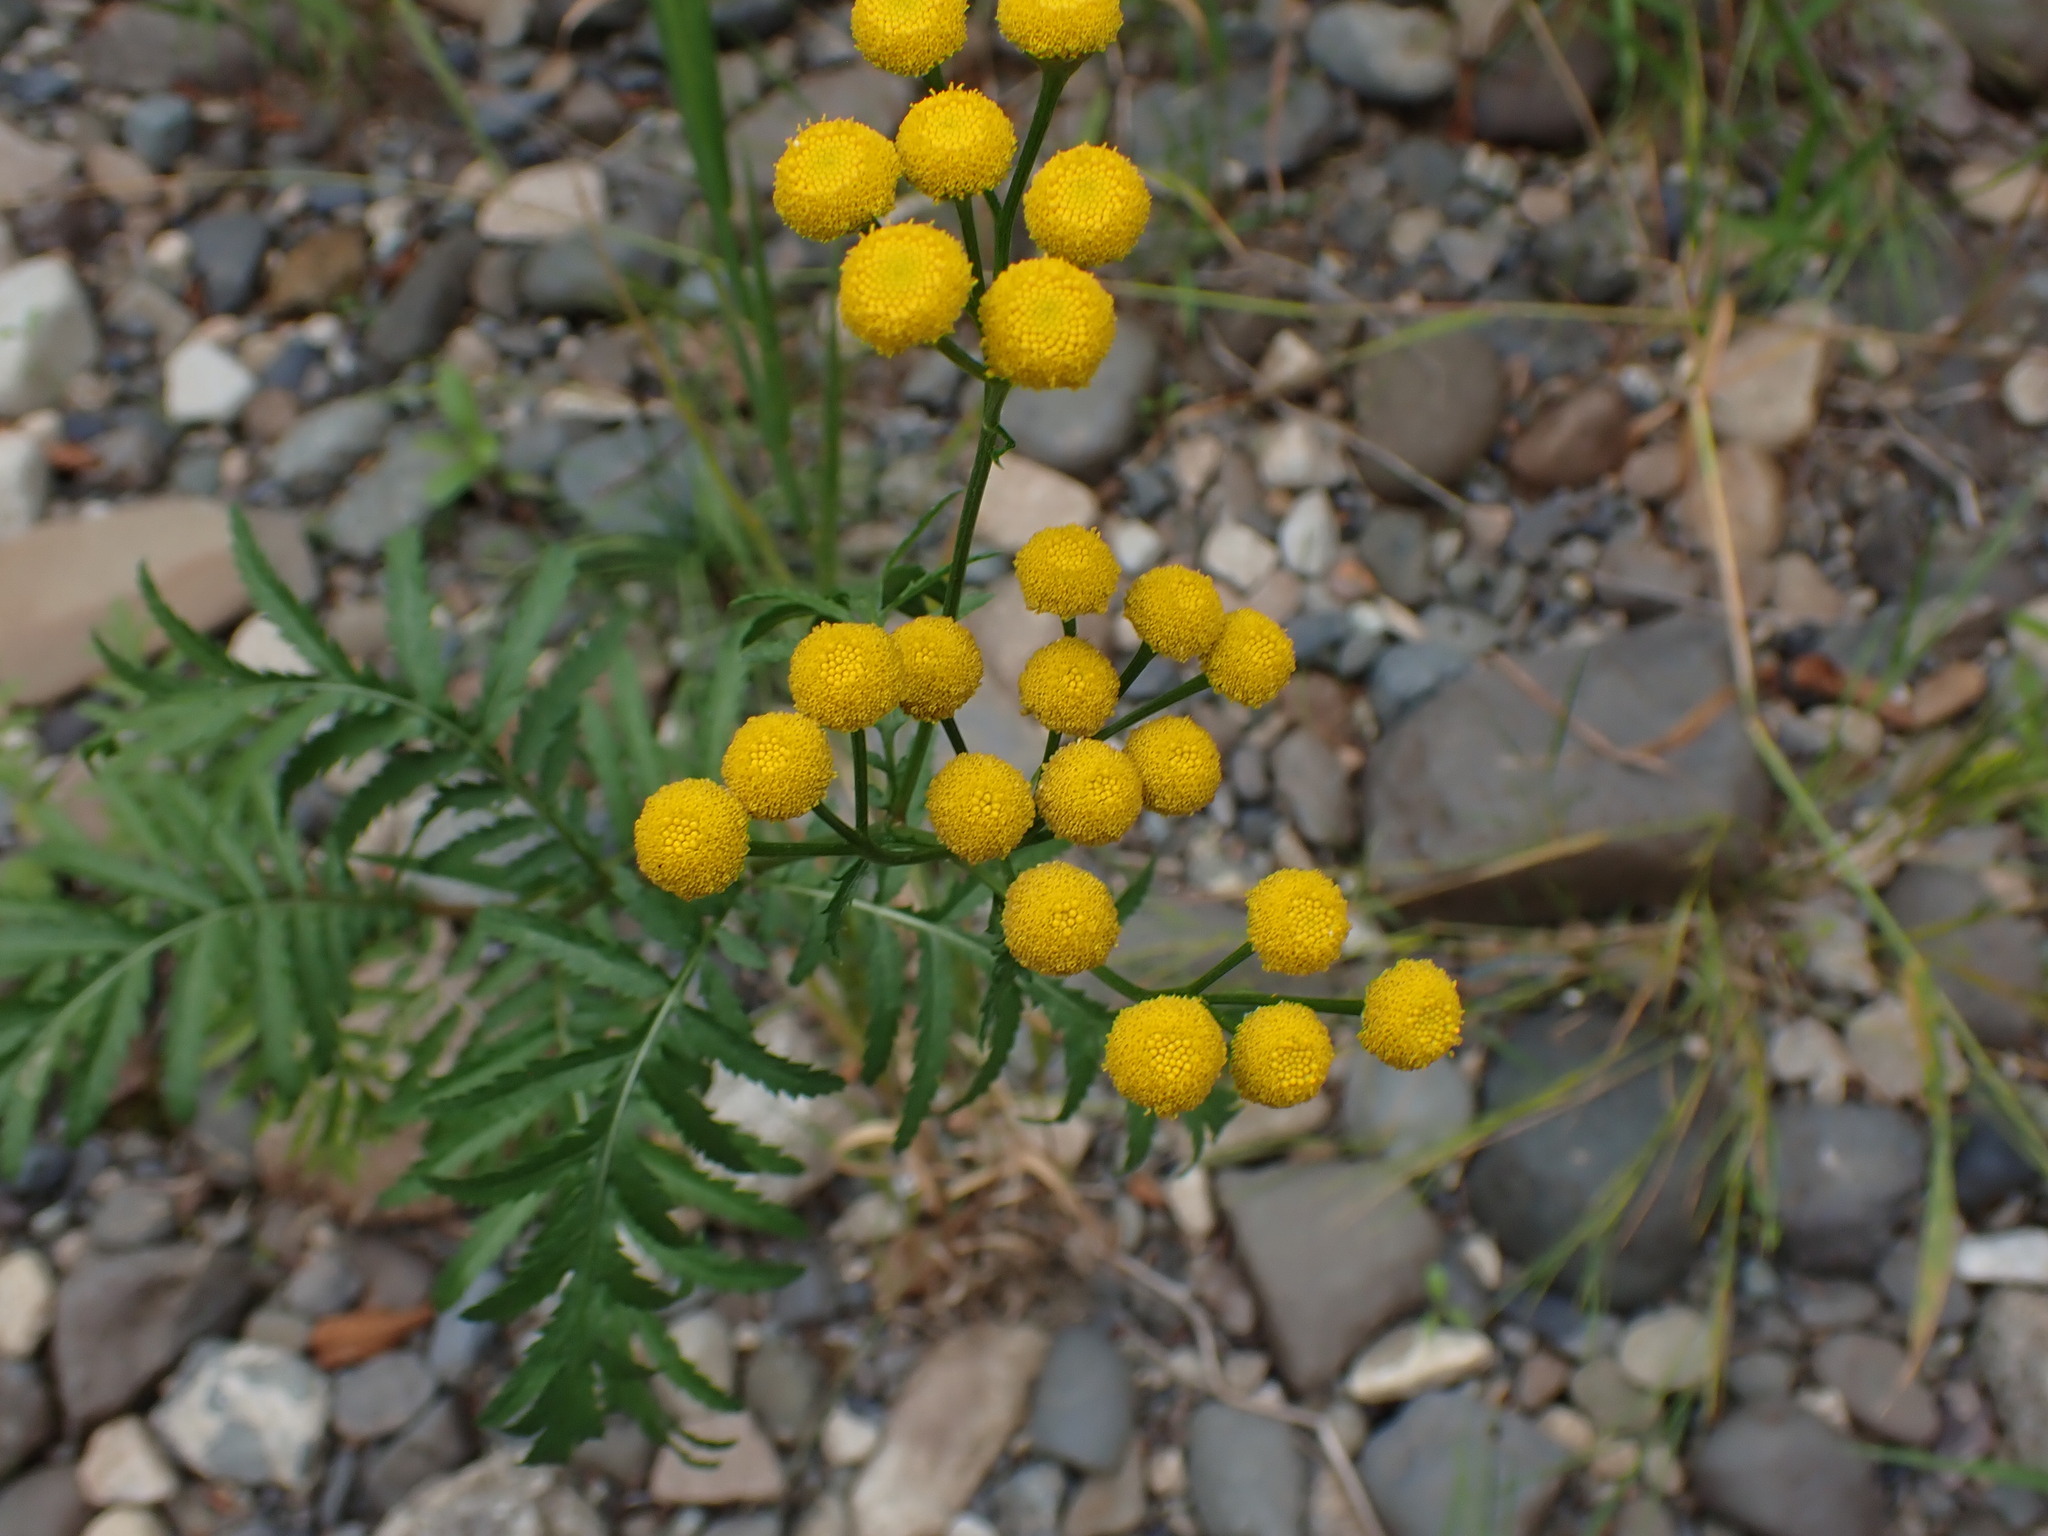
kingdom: Plantae
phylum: Tracheophyta
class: Magnoliopsida
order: Asterales
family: Asteraceae
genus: Tanacetum
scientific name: Tanacetum vulgare
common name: Common tansy
